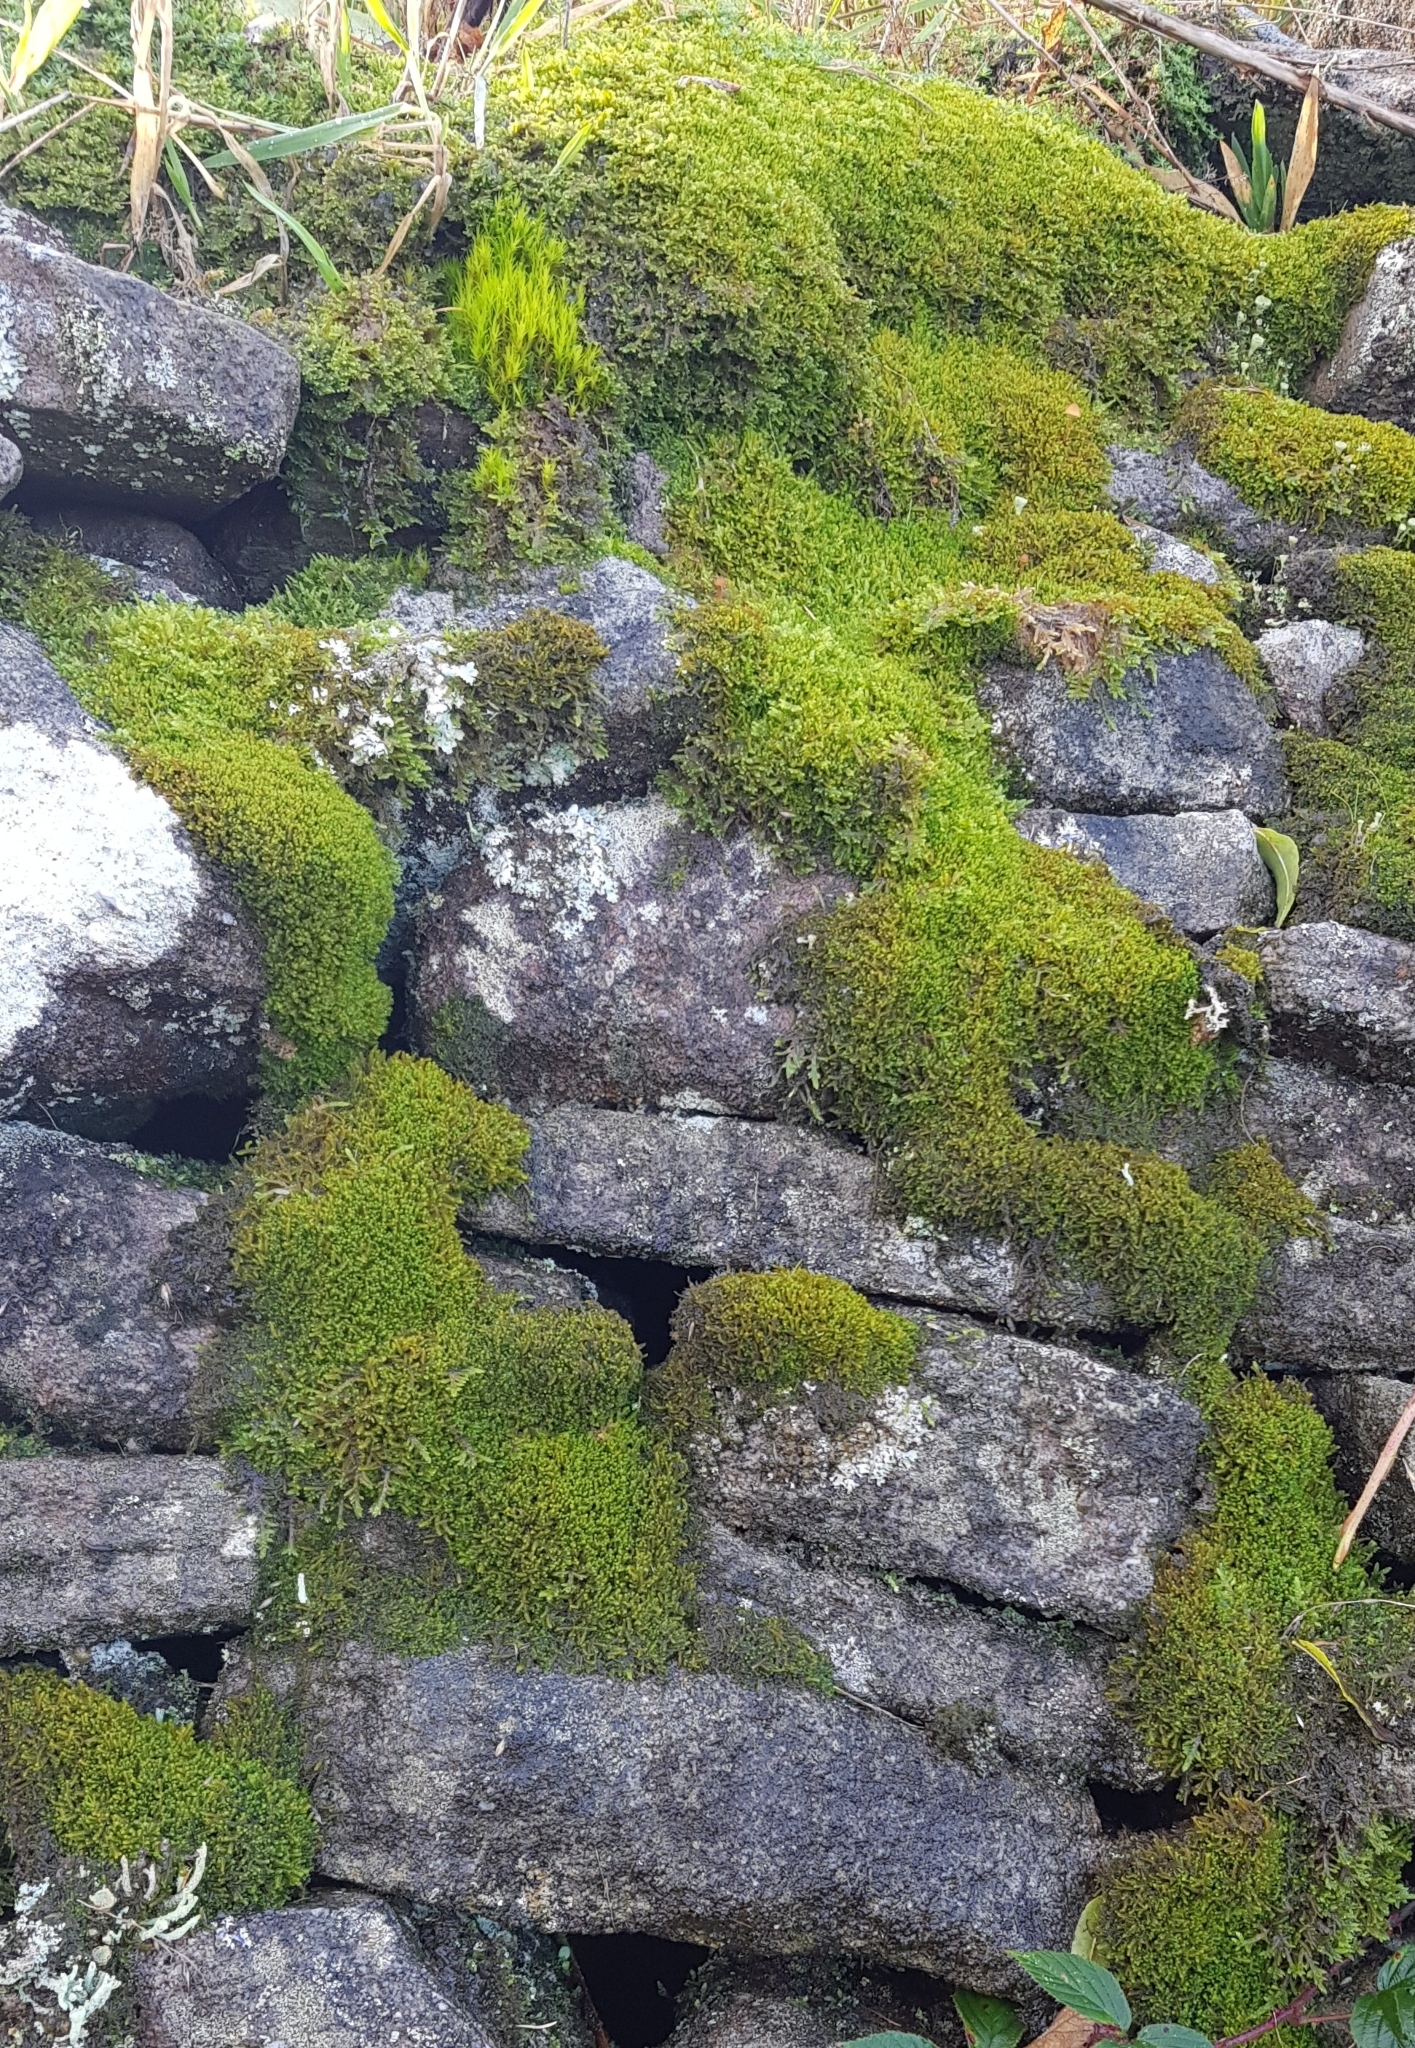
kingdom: Plantae
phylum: Marchantiophyta
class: Jungermanniopsida
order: Jungermanniales
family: Lophoziaceae
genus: Trilophozia
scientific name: Trilophozia quinquedentata
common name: Large notchwort
